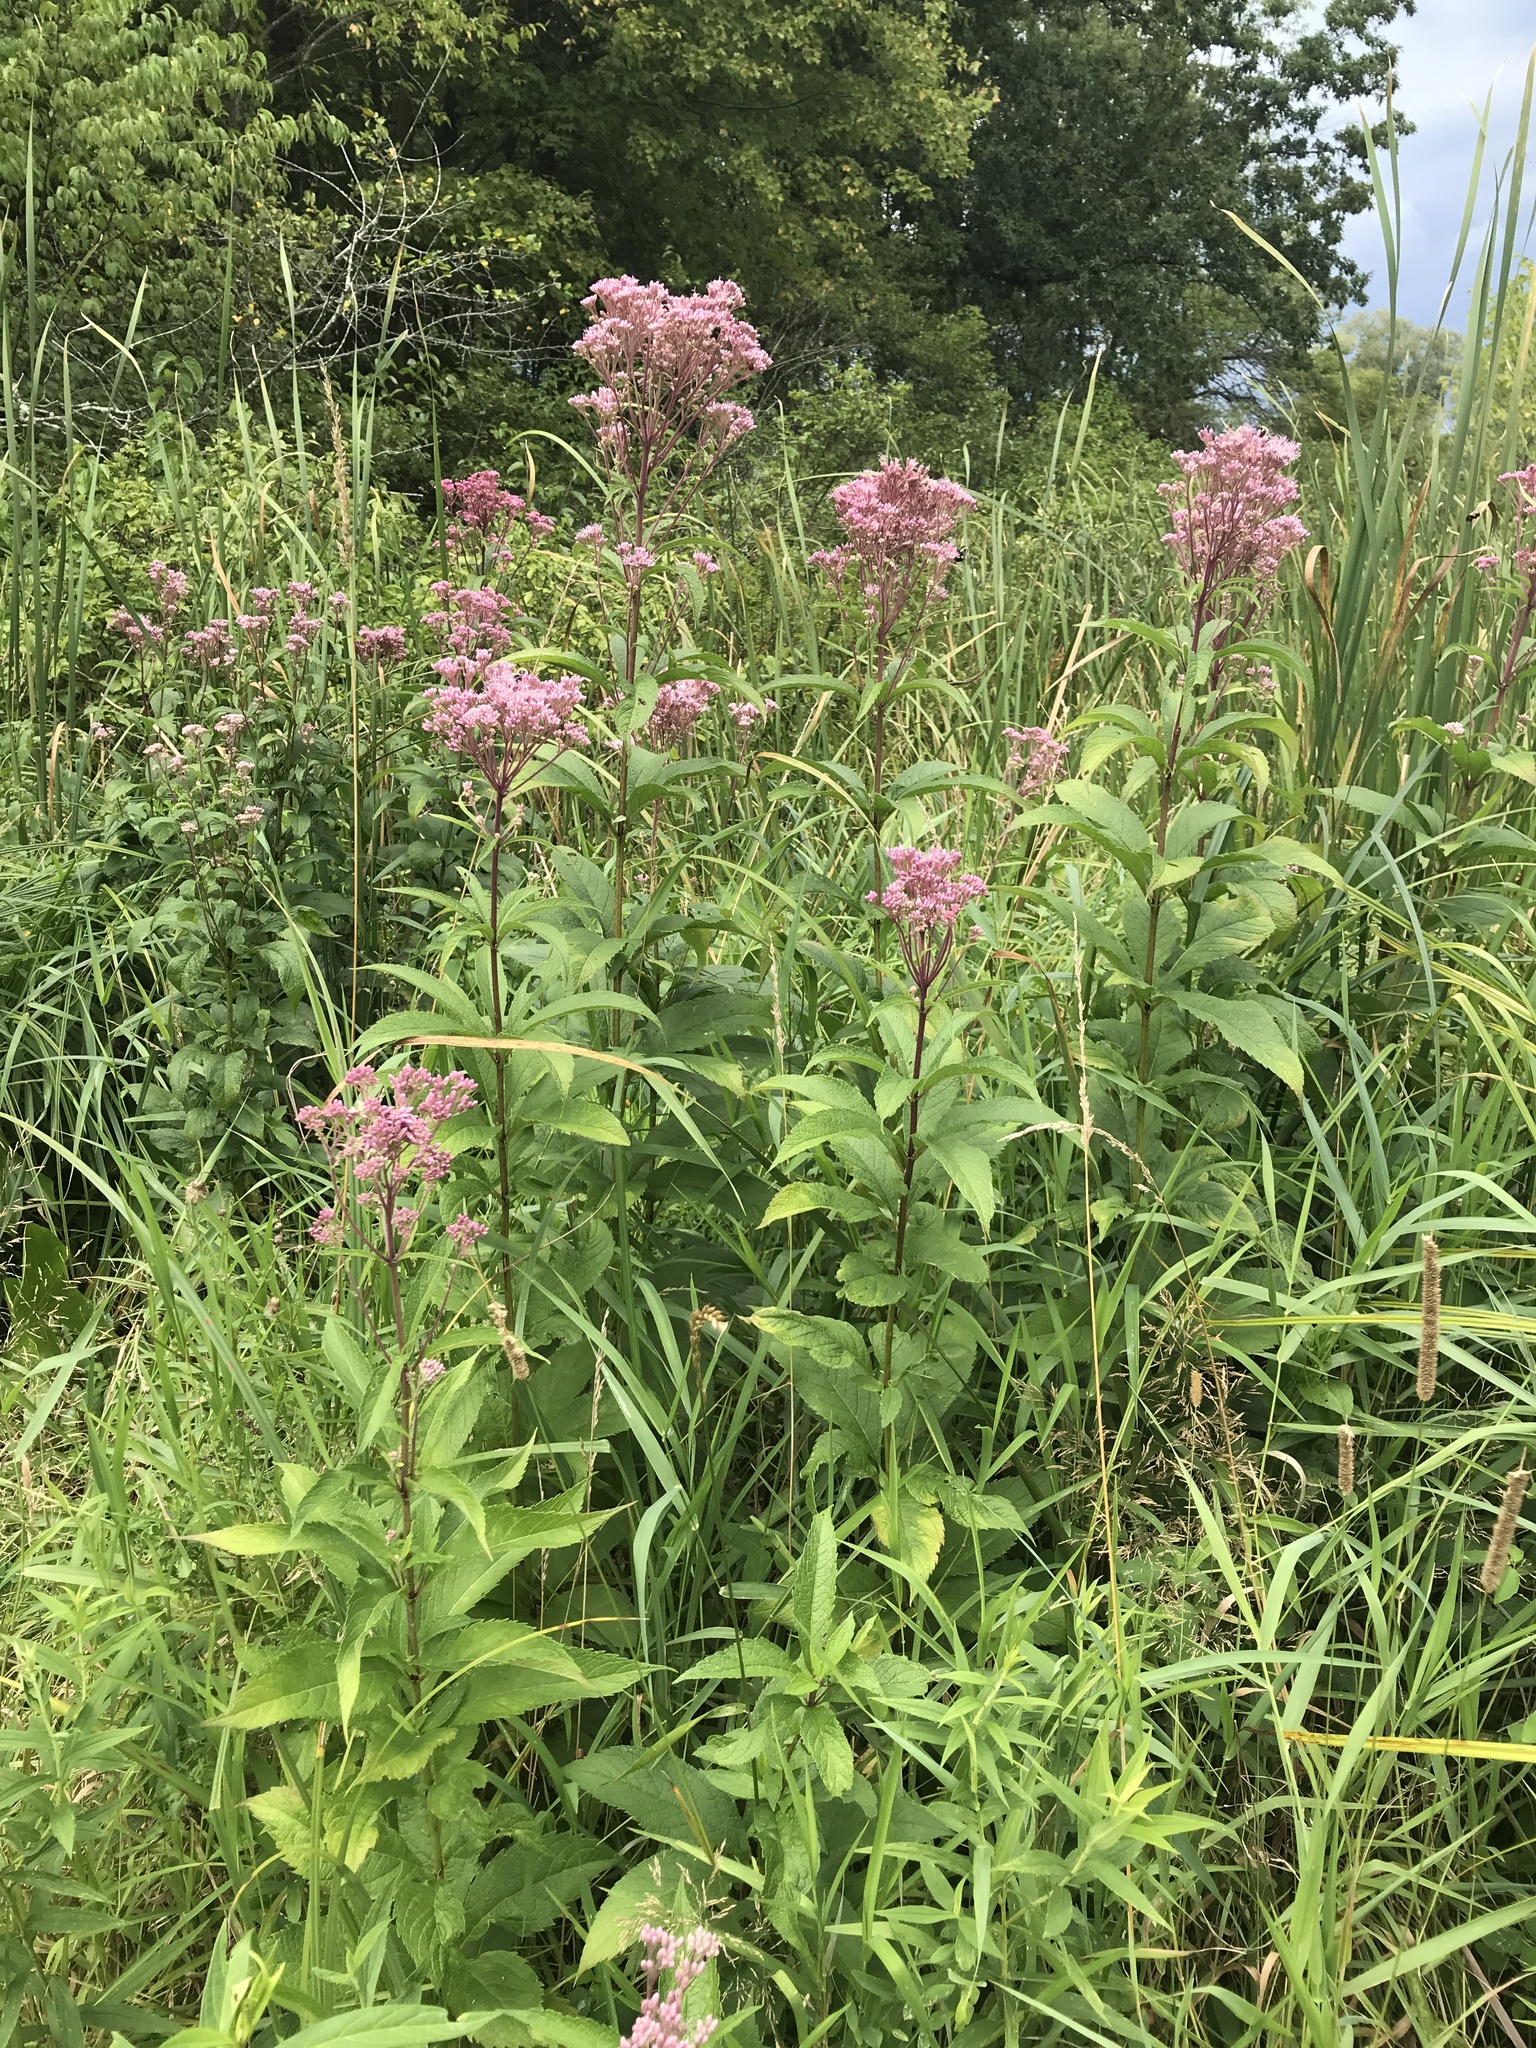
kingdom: Plantae
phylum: Tracheophyta
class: Magnoliopsida
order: Asterales
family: Asteraceae
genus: Eutrochium
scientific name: Eutrochium maculatum
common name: Spotted joe pye weed
